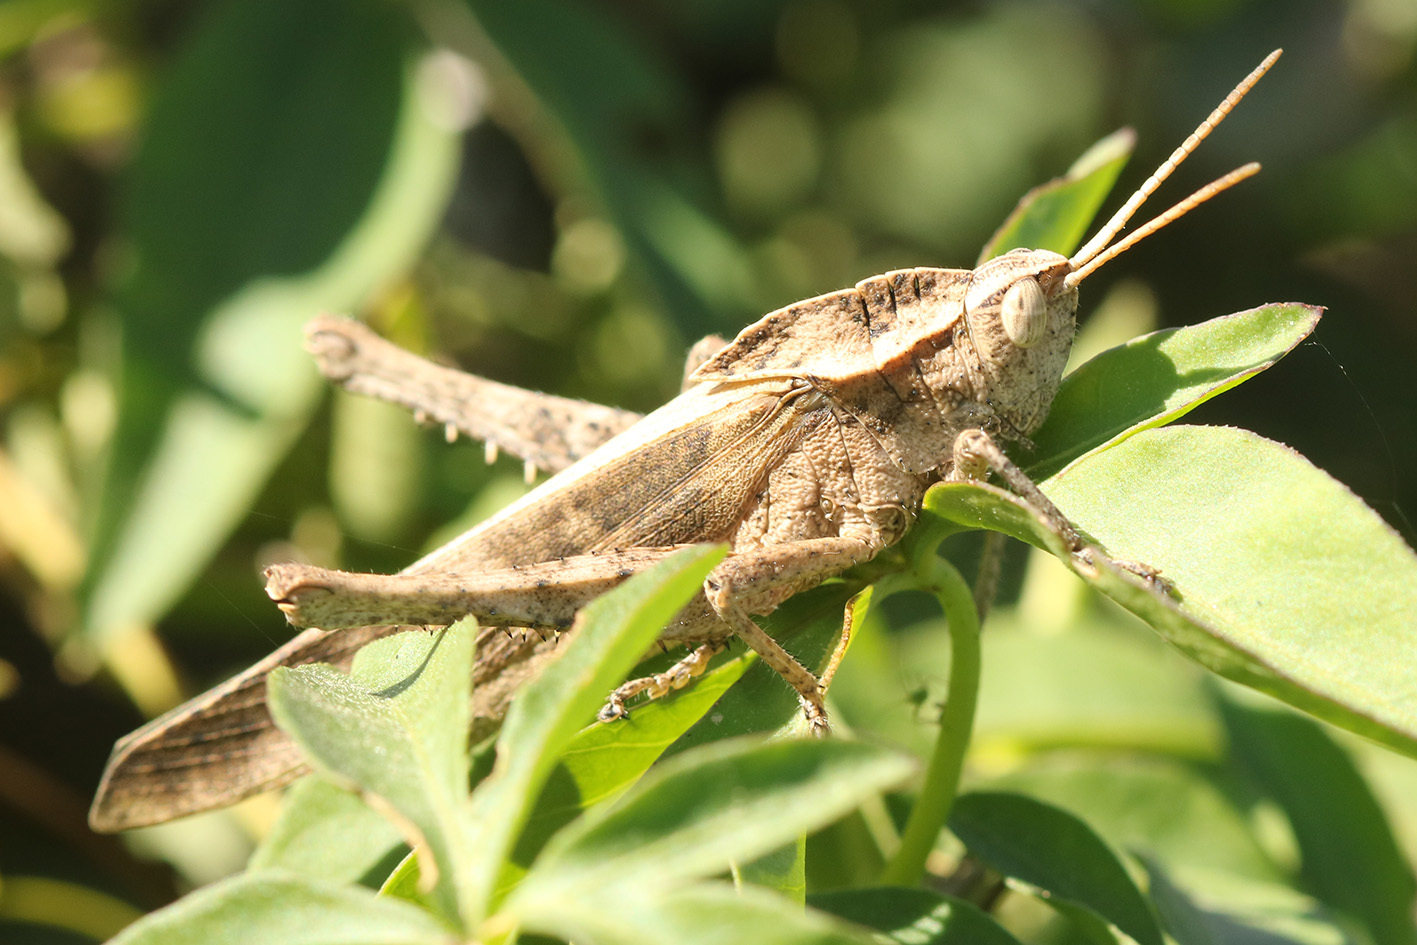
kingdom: Animalia
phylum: Arthropoda
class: Insecta
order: Orthoptera
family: Romaleidae
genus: Xyleus
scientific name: Xyleus discoideus
